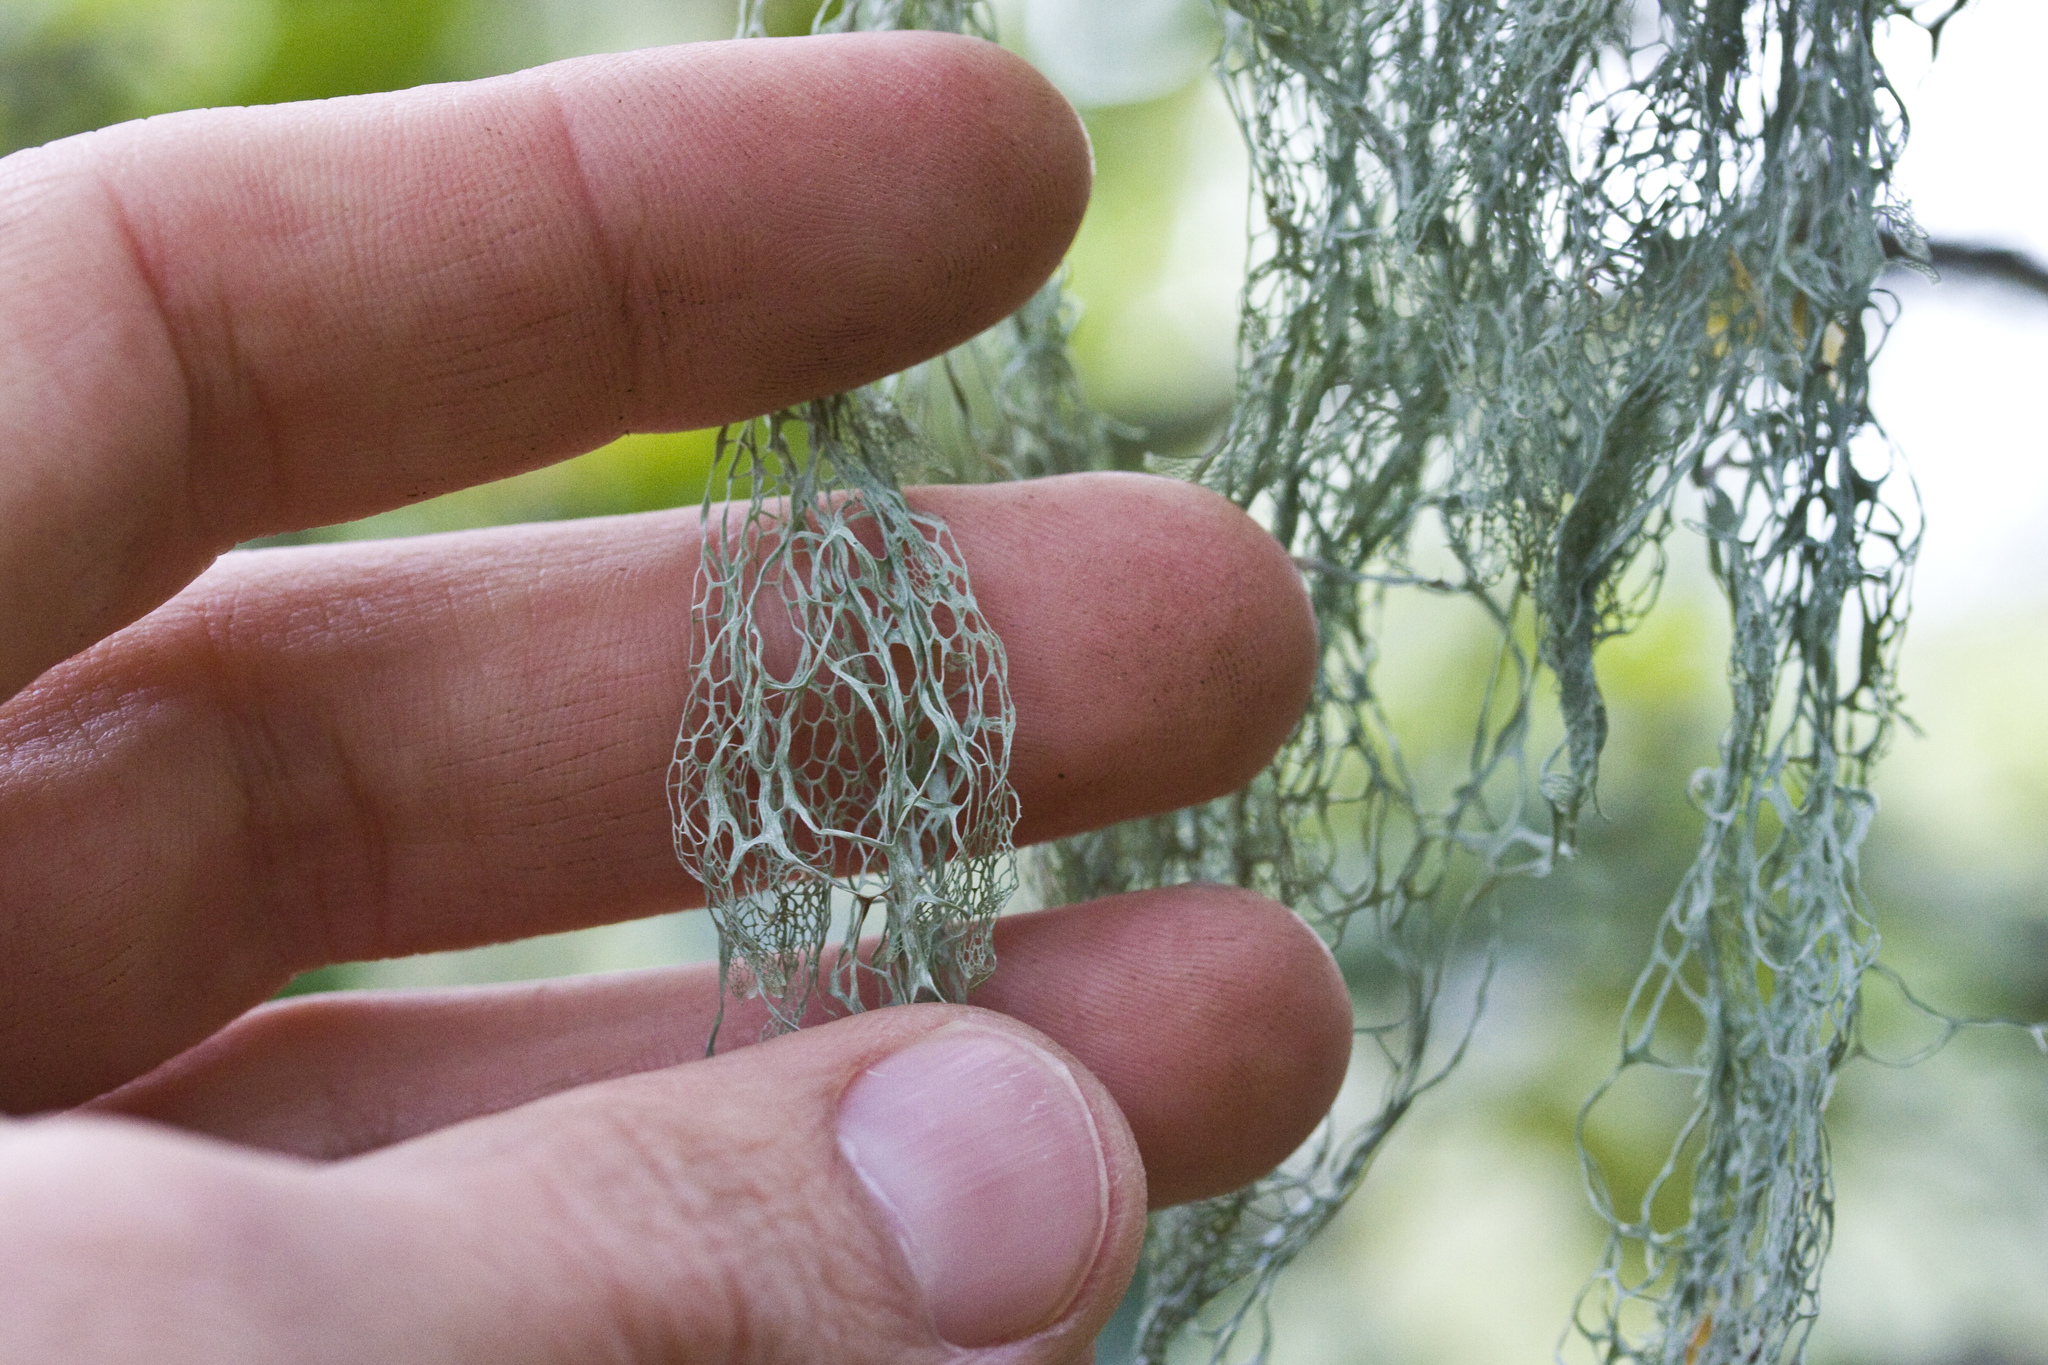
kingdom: Fungi
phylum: Ascomycota
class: Lecanoromycetes
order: Lecanorales
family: Ramalinaceae
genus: Ramalina
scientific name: Ramalina menziesii
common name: Lace lichen
